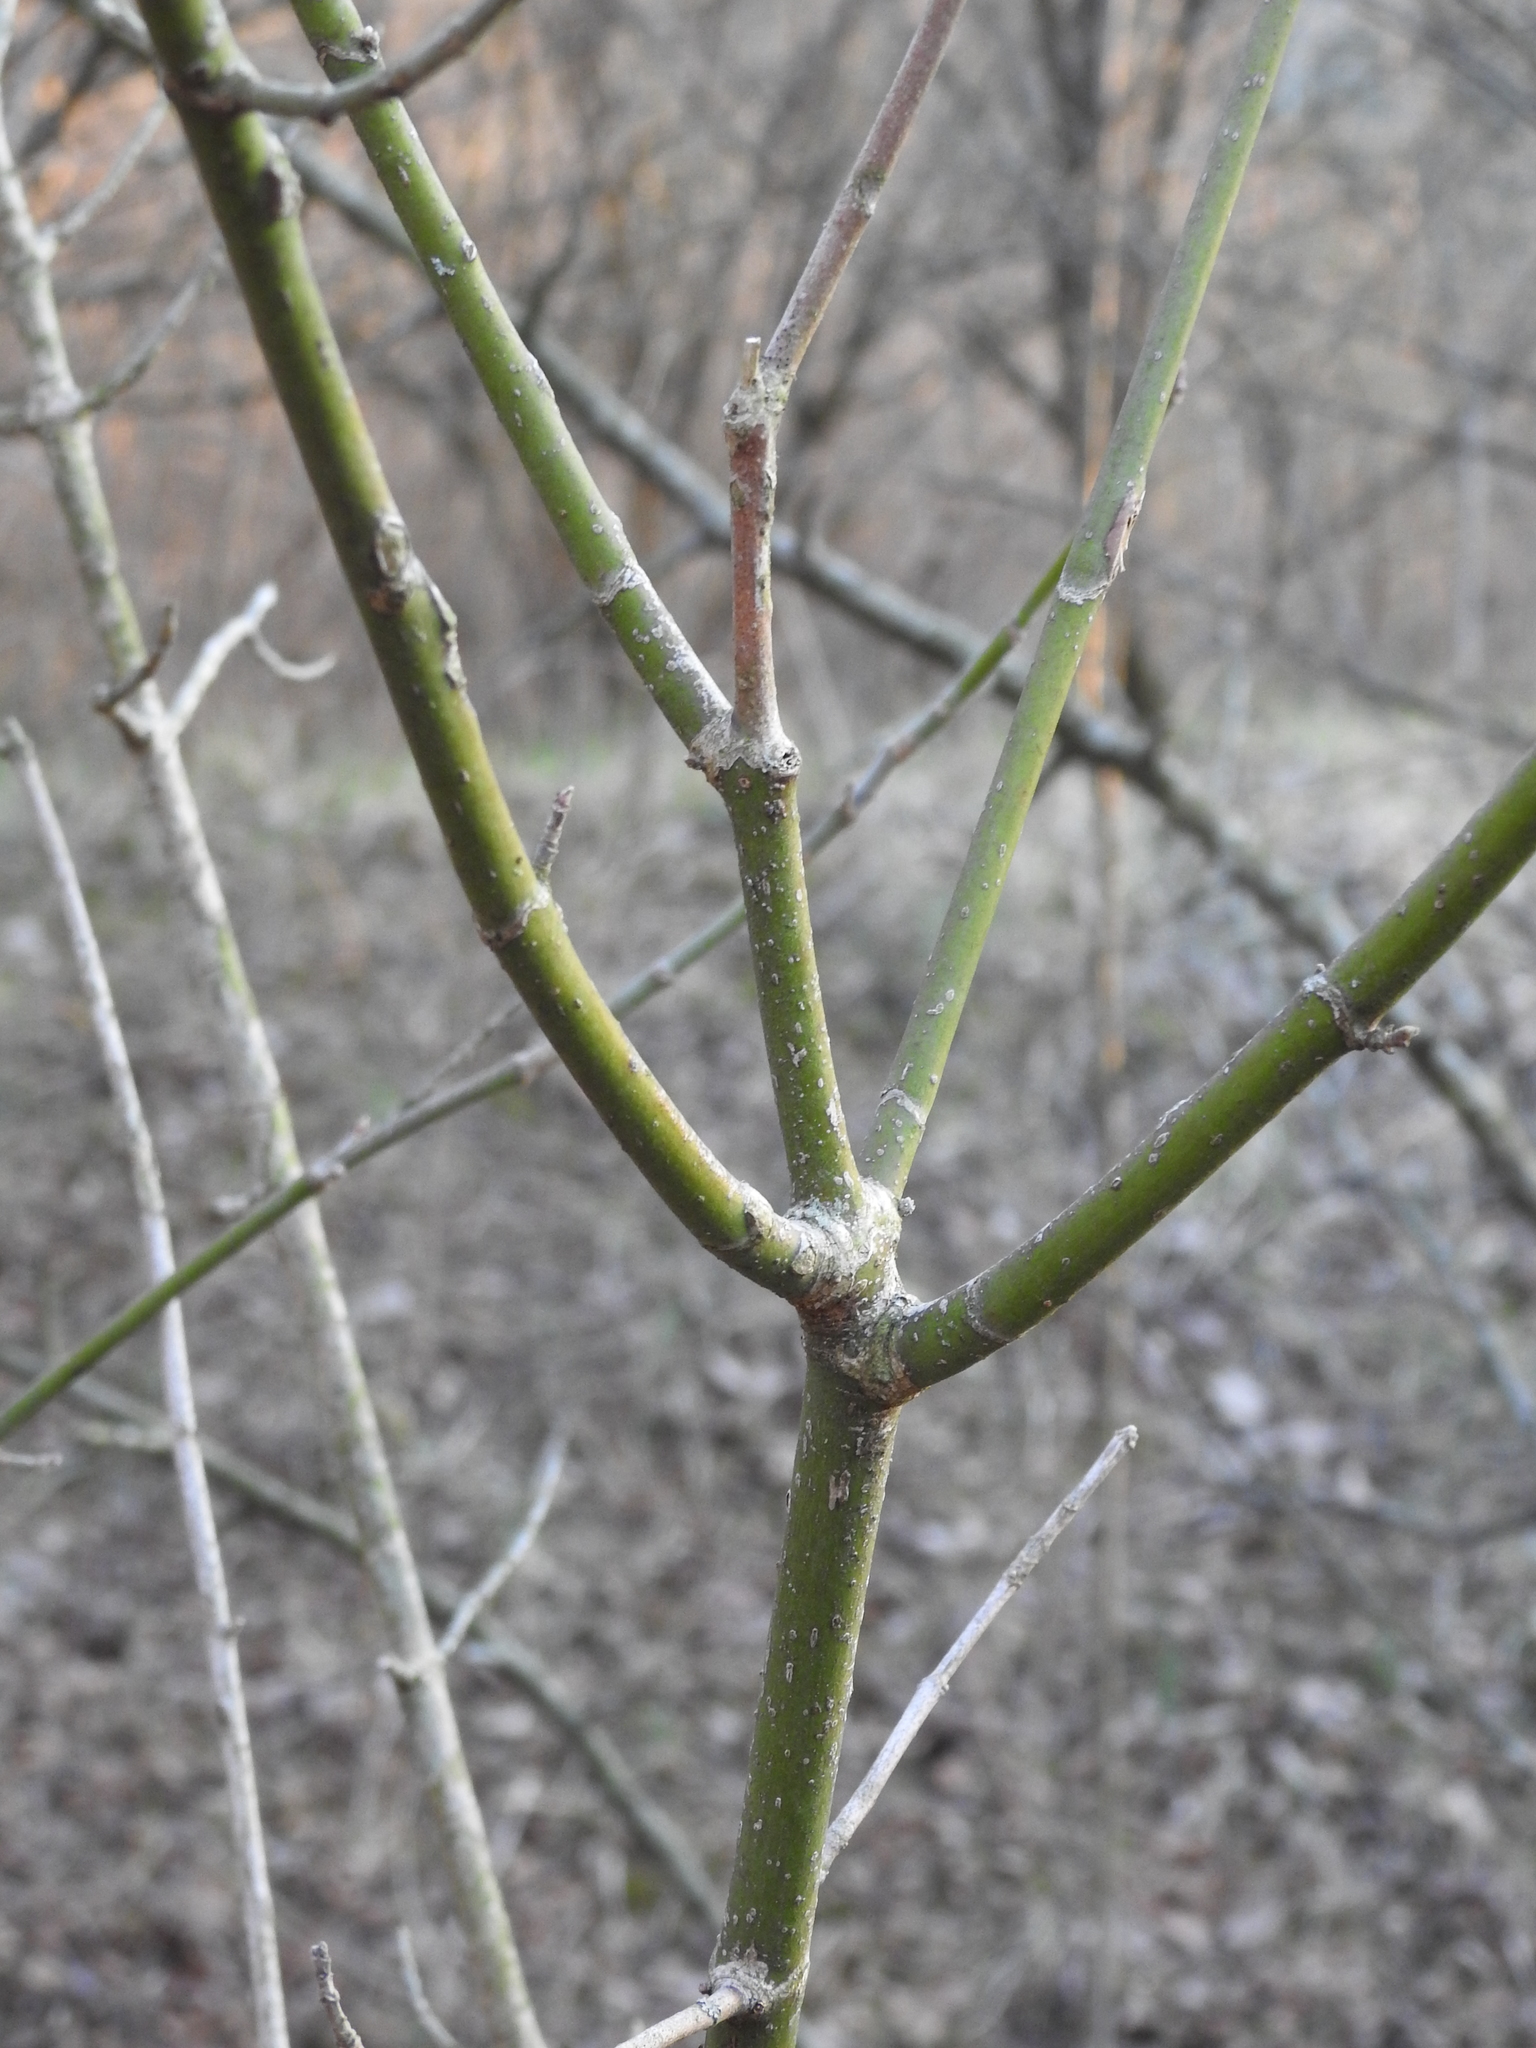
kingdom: Plantae
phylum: Tracheophyta
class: Magnoliopsida
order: Sapindales
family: Sapindaceae
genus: Acer
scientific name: Acer negundo
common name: Ashleaf maple
